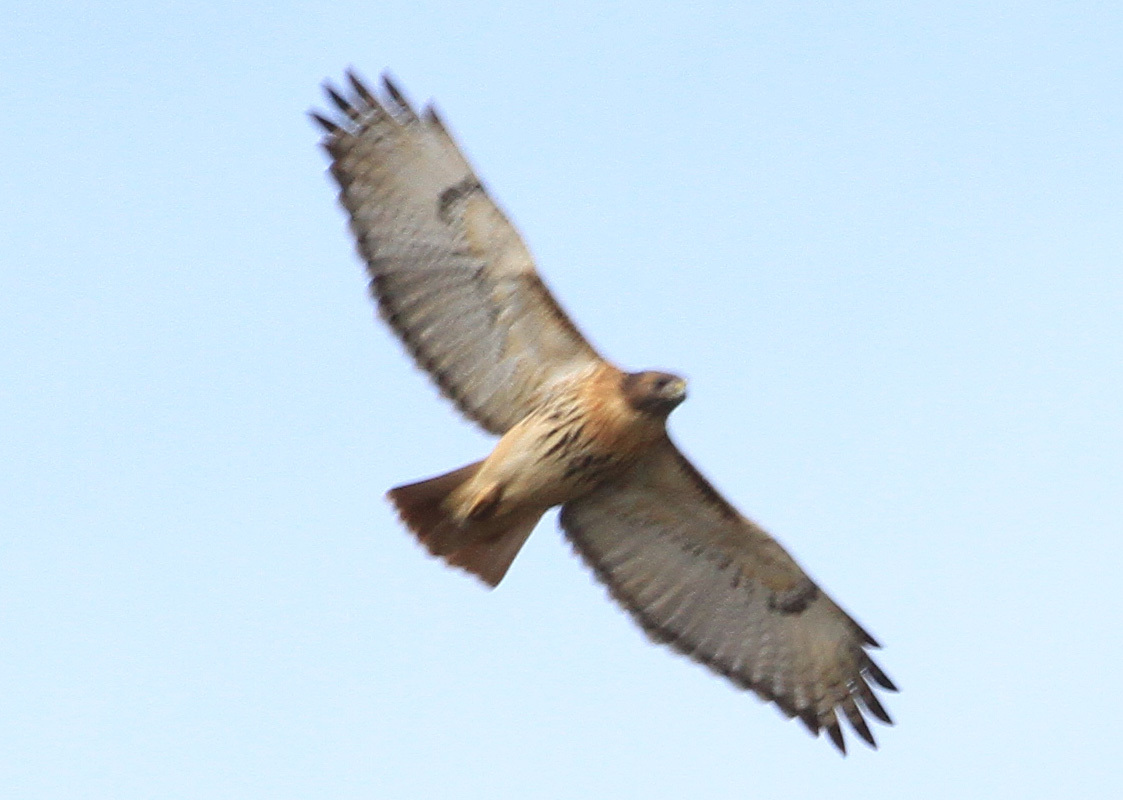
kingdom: Animalia
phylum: Chordata
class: Aves
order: Accipitriformes
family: Accipitridae
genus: Buteo
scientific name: Buteo jamaicensis
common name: Red-tailed hawk
